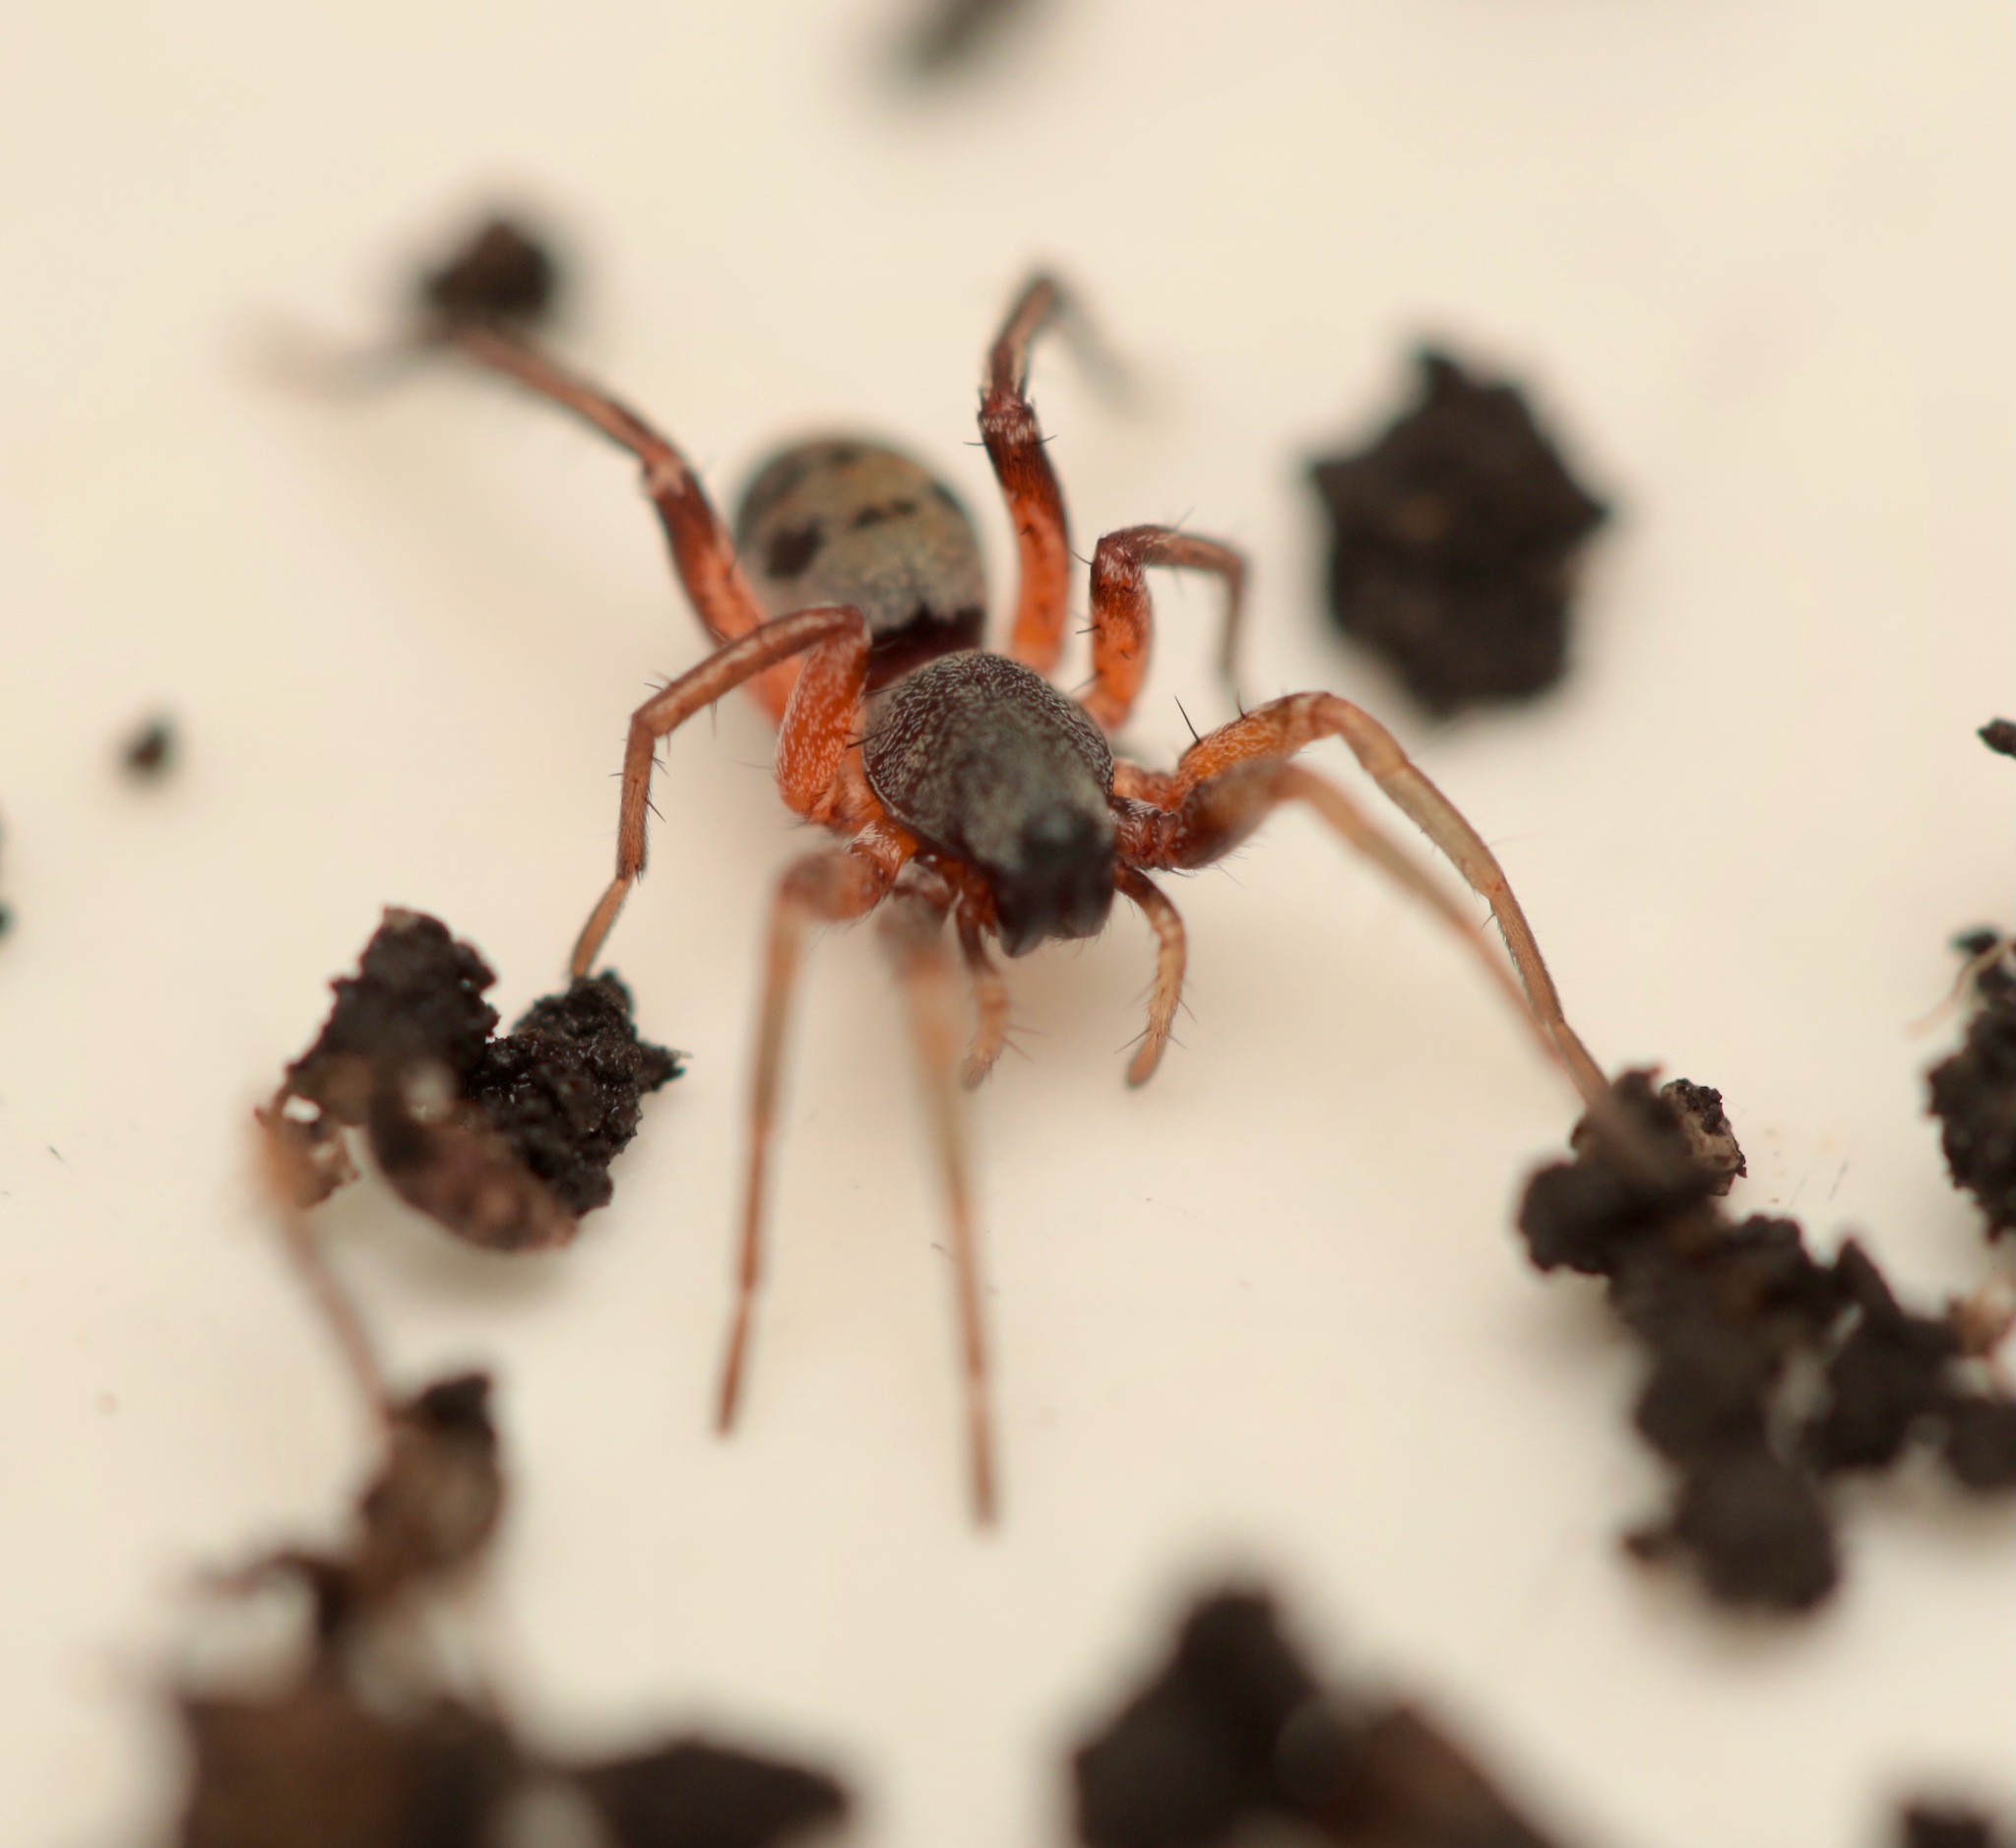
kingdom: Animalia
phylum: Arthropoda
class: Arachnida
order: Araneae
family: Corinnidae
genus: Castianeira
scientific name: Castianeira descripta
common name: Red-spotted ant-mimic sac spider
